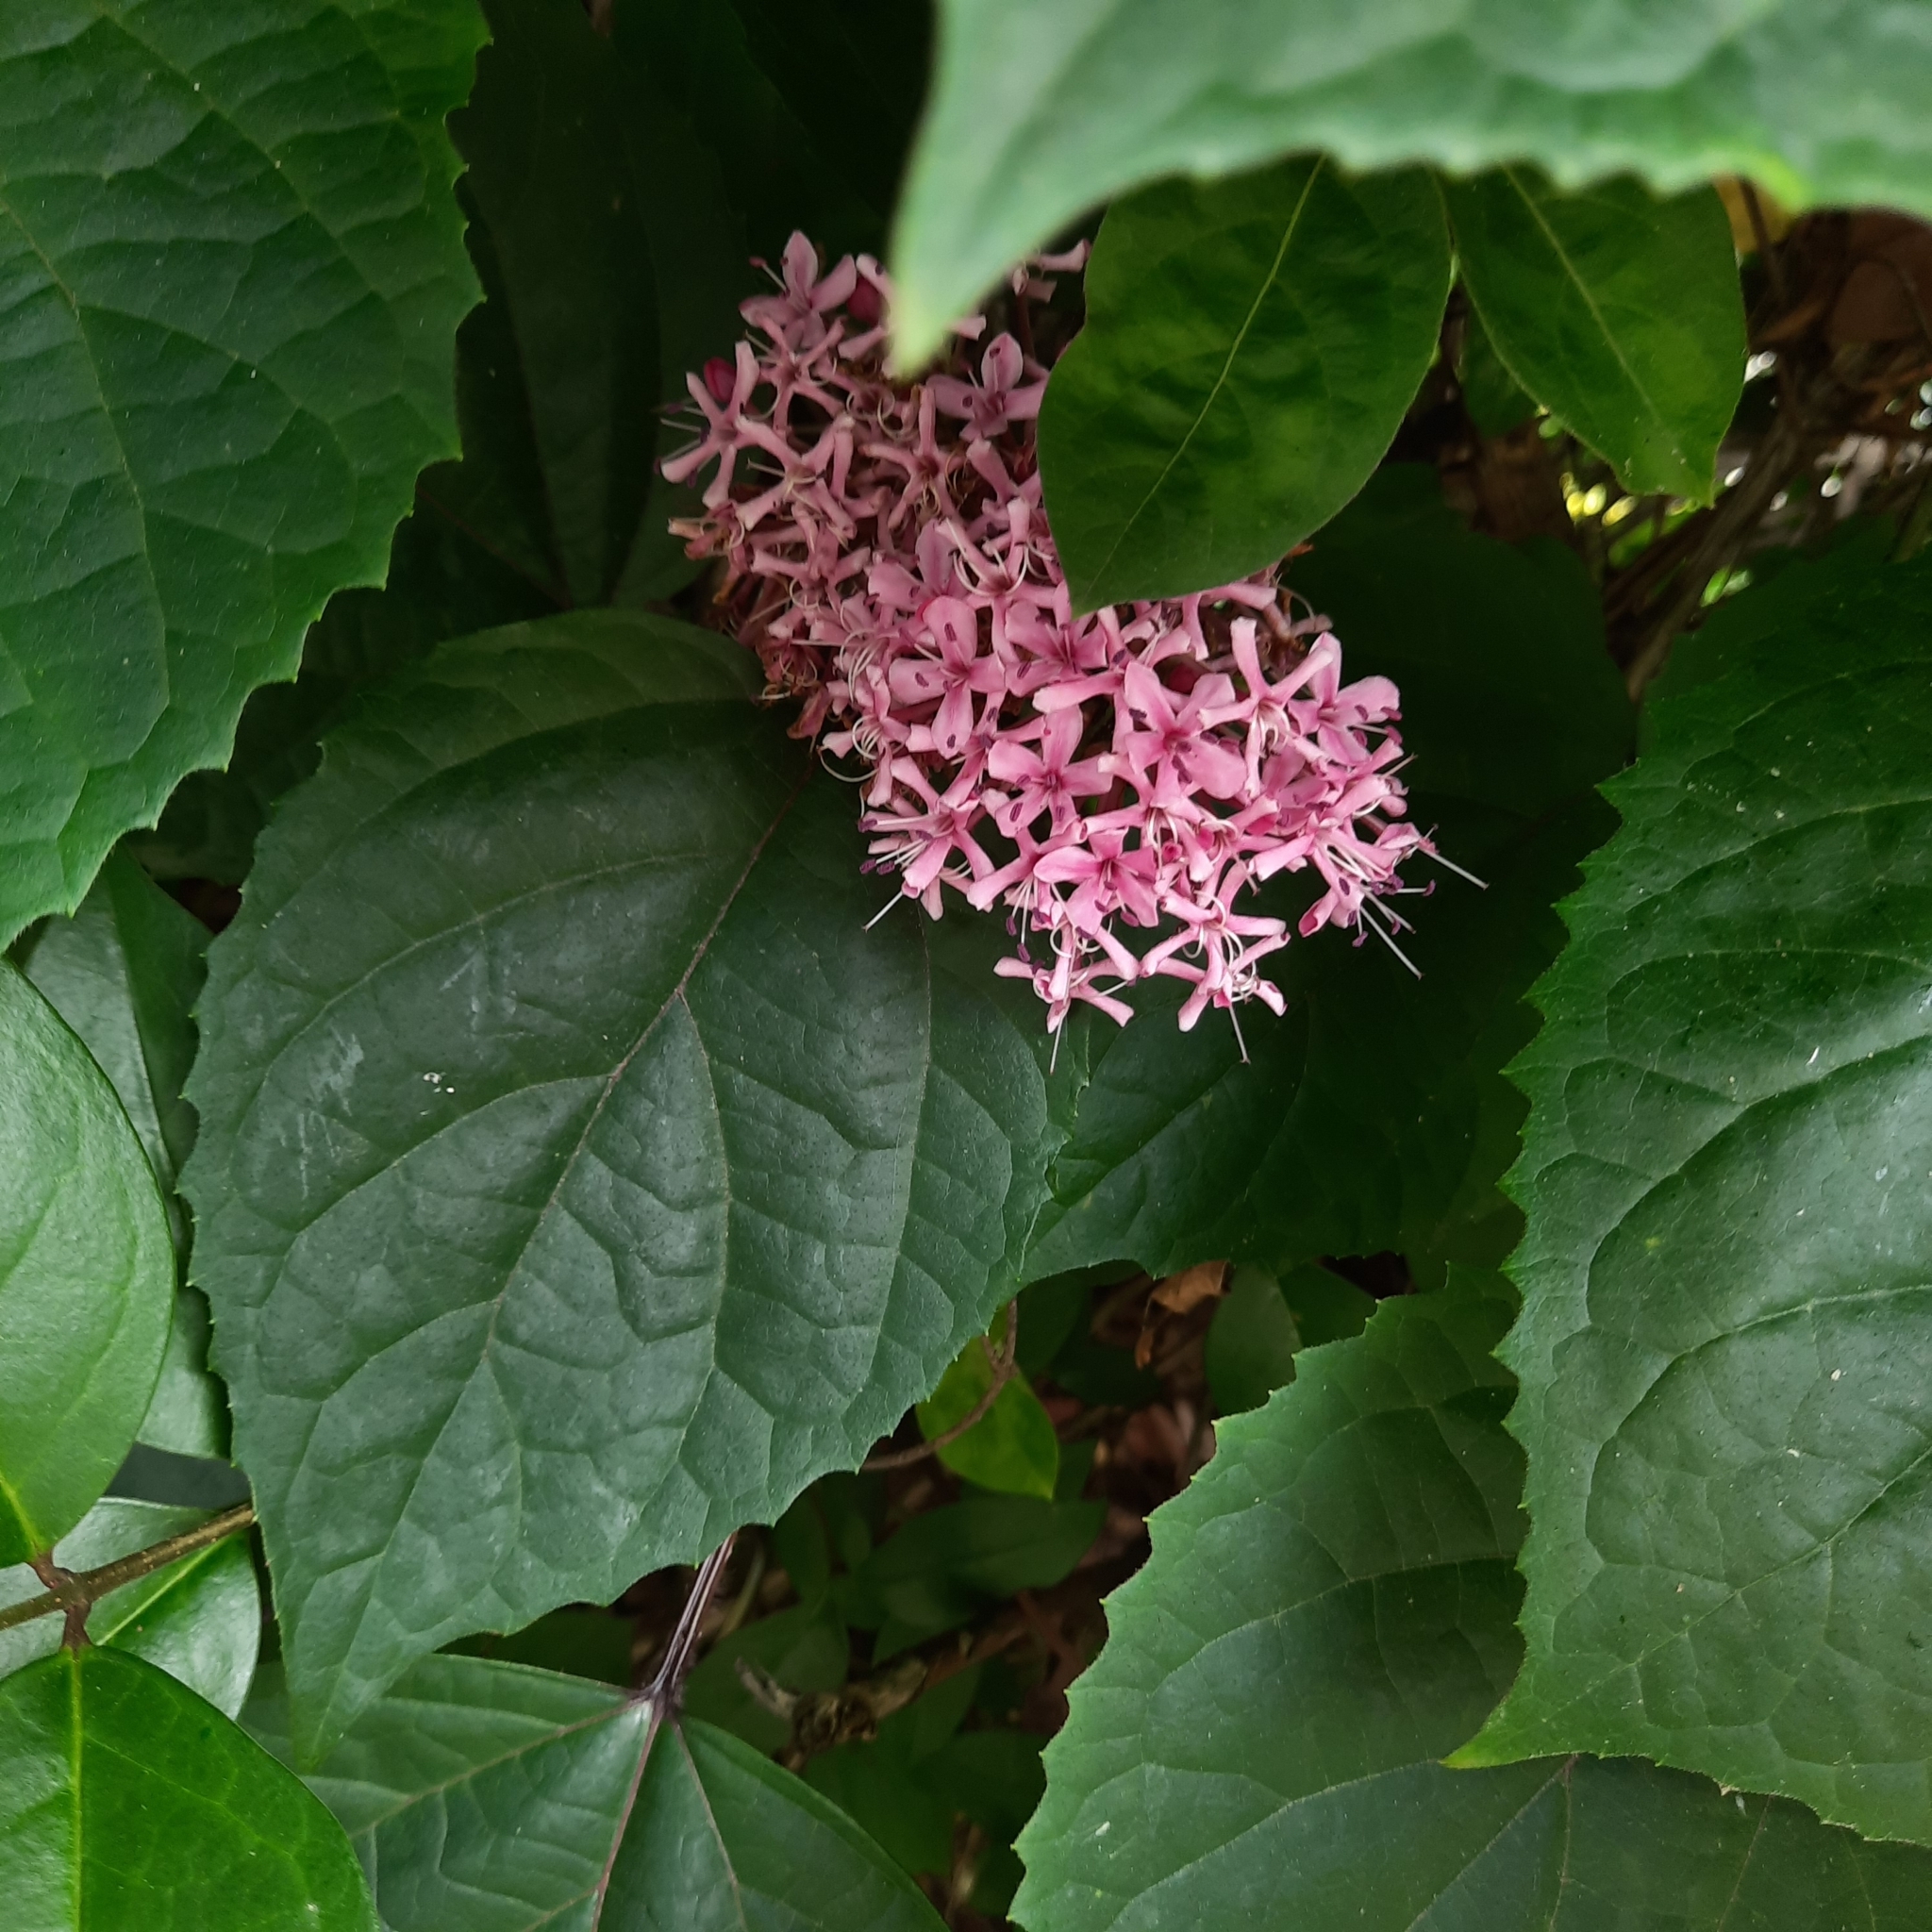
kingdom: Plantae
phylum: Tracheophyta
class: Magnoliopsida
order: Lamiales
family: Lamiaceae
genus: Clerodendrum
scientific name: Clerodendrum bungei
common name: Rose glorybower
